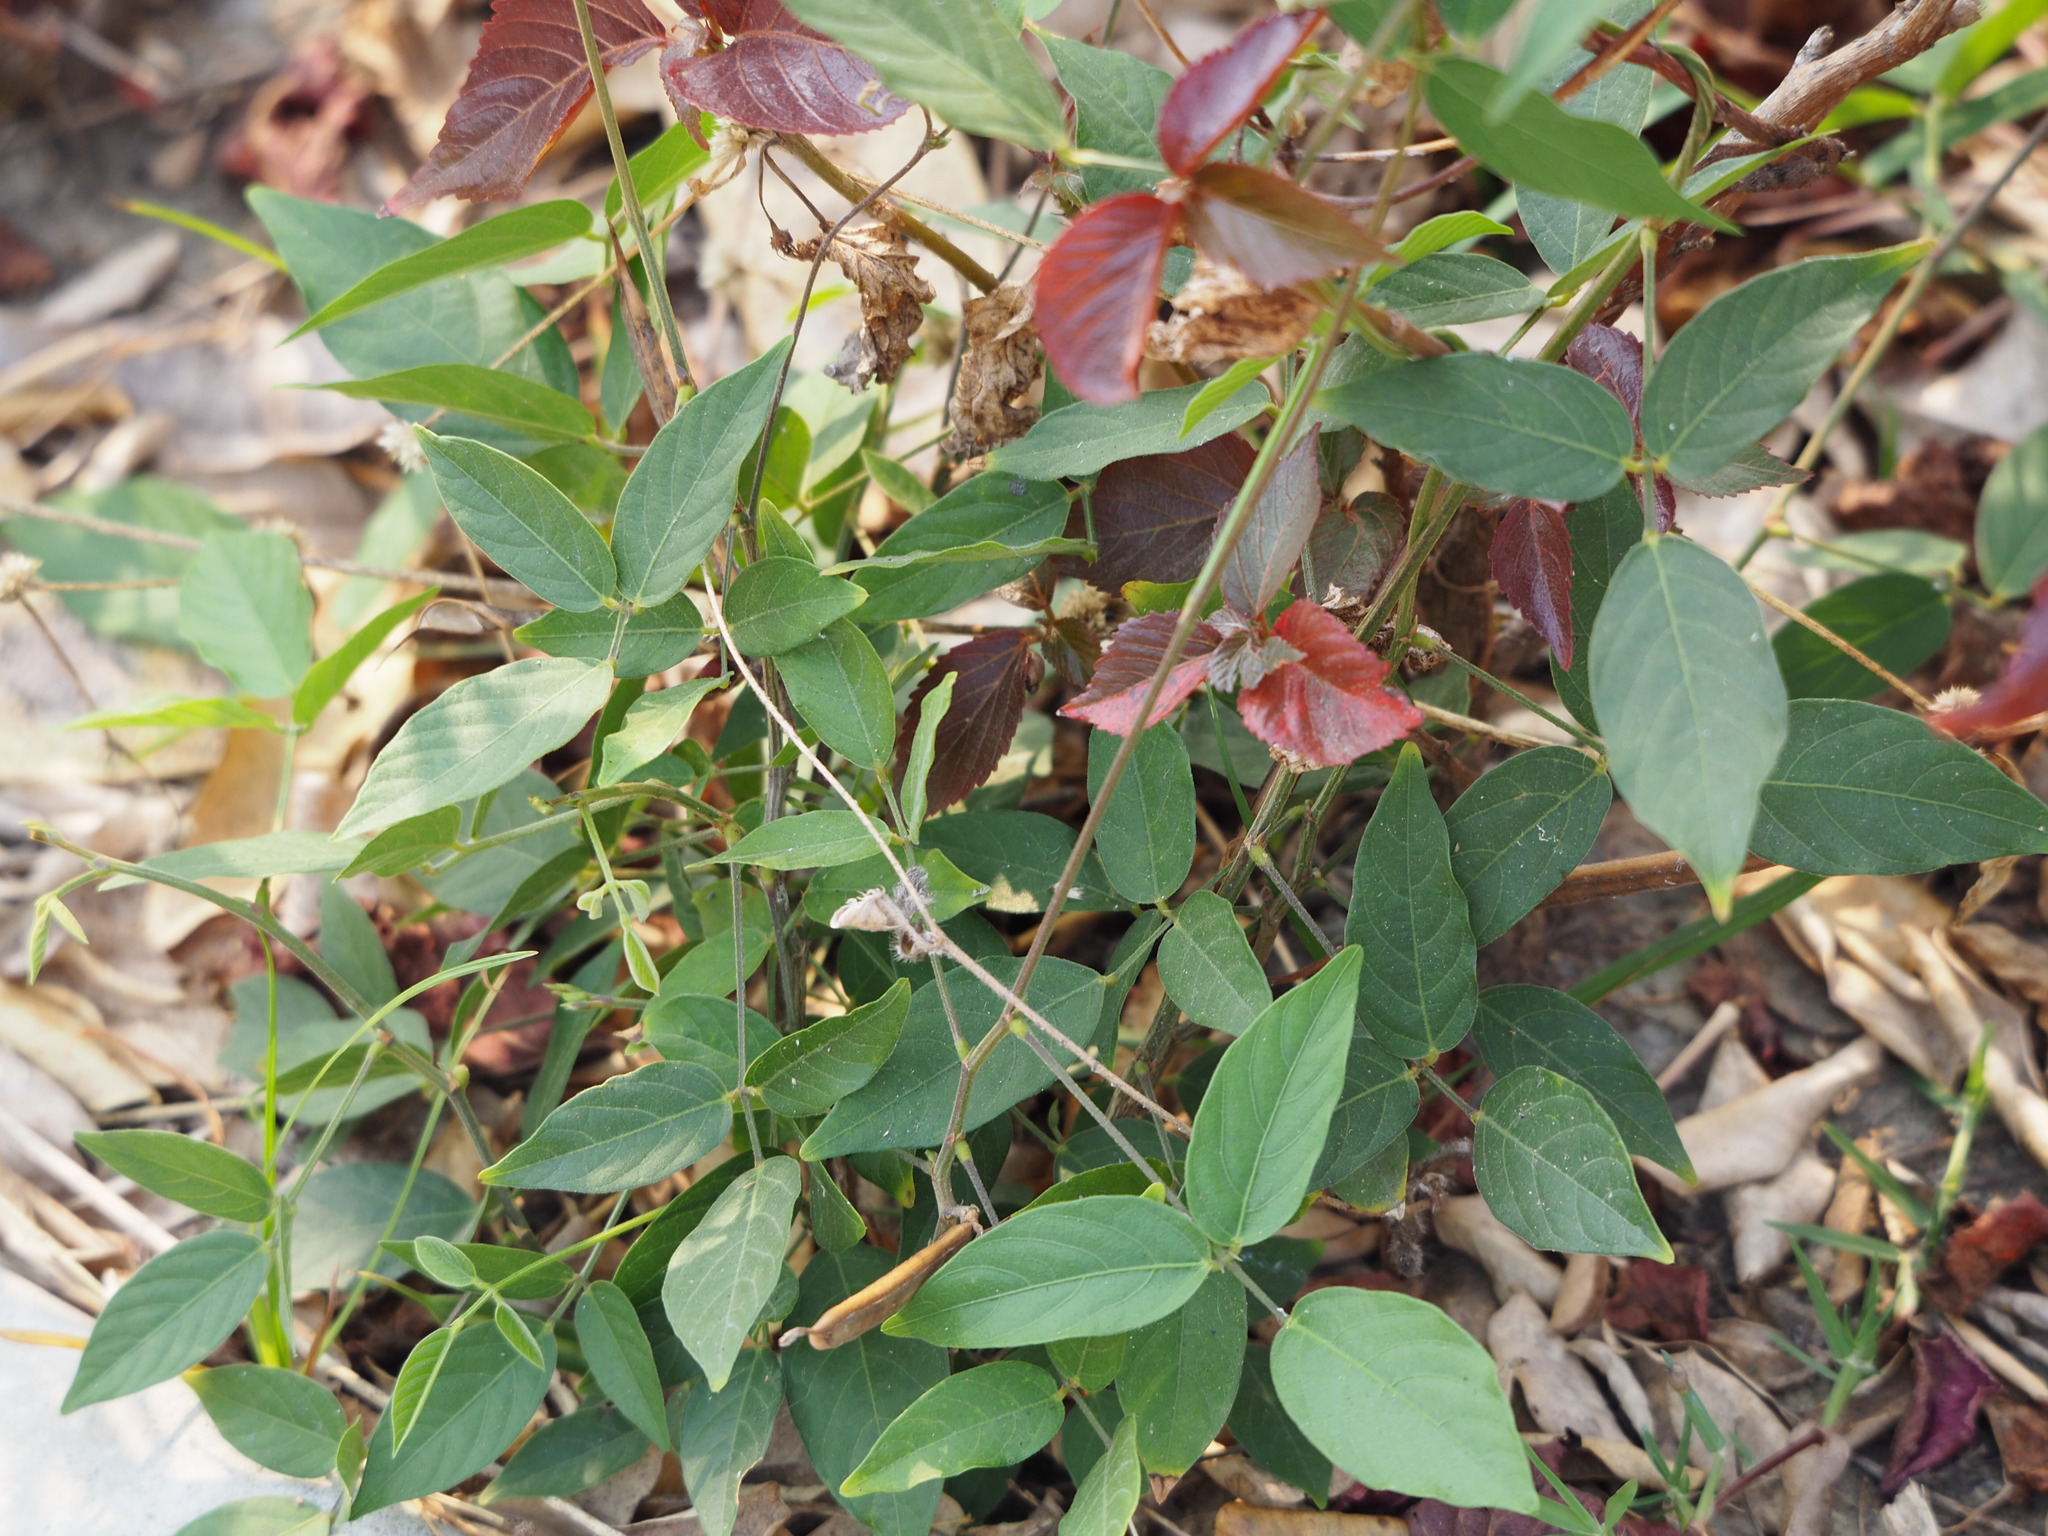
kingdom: Plantae
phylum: Tracheophyta
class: Magnoliopsida
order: Fabales
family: Fabaceae
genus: Calopogonium
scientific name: Calopogonium mucunoides
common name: Calopo
